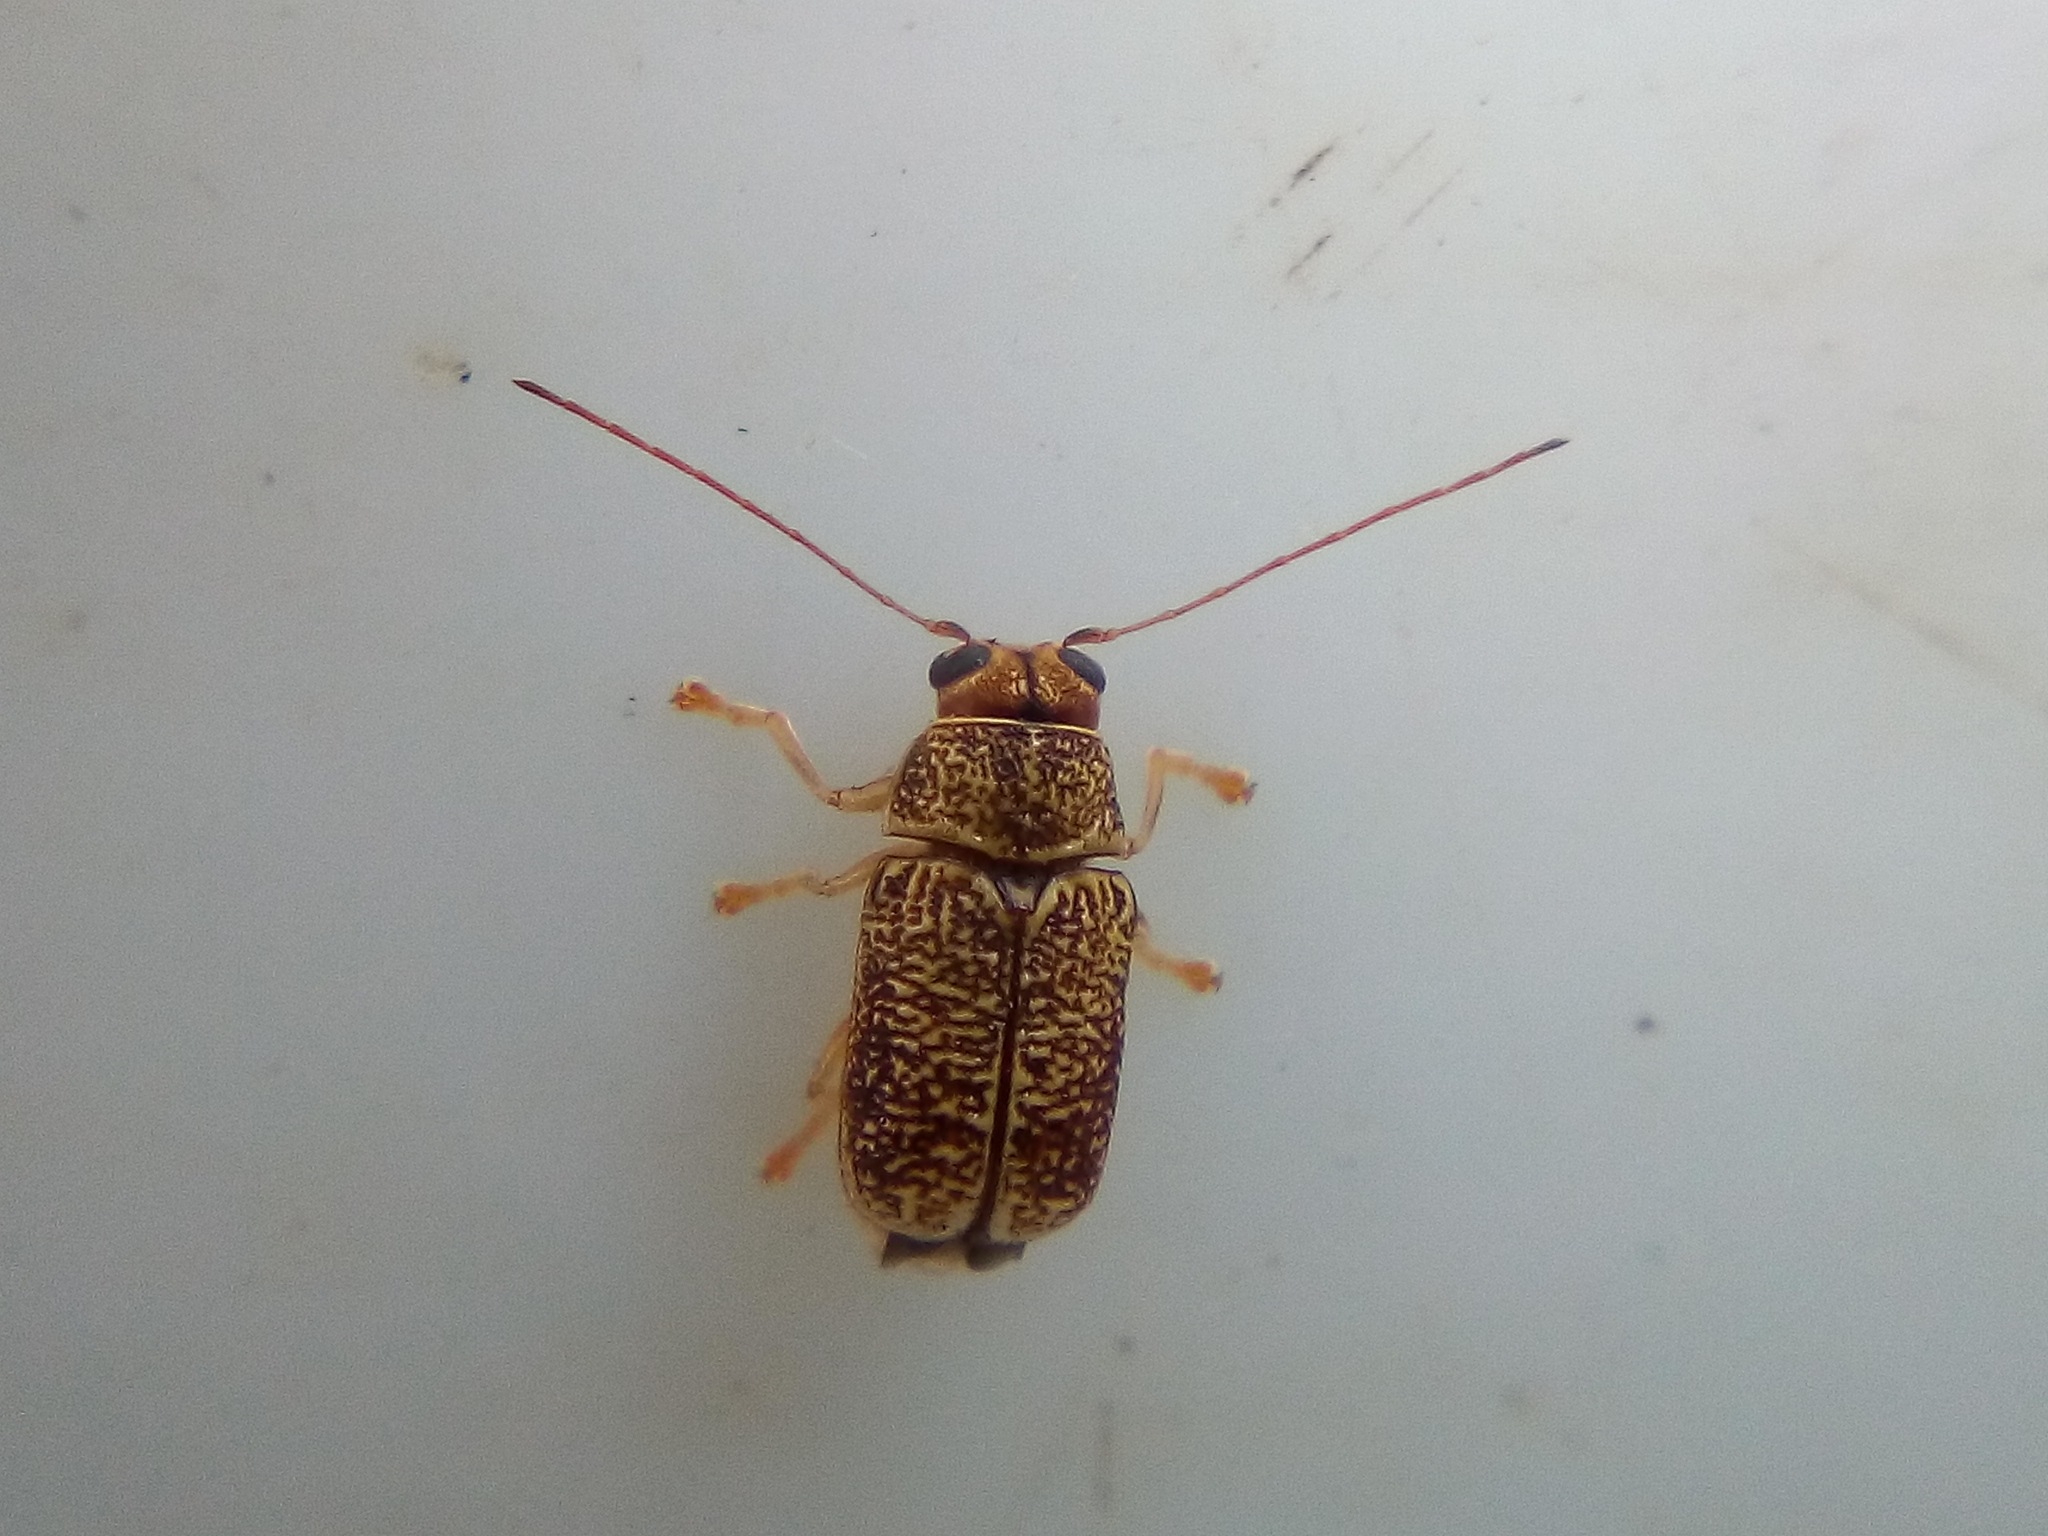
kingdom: Animalia
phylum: Arthropoda
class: Insecta
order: Coleoptera
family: Chrysomelidae
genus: Aporocera
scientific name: Aporocera
